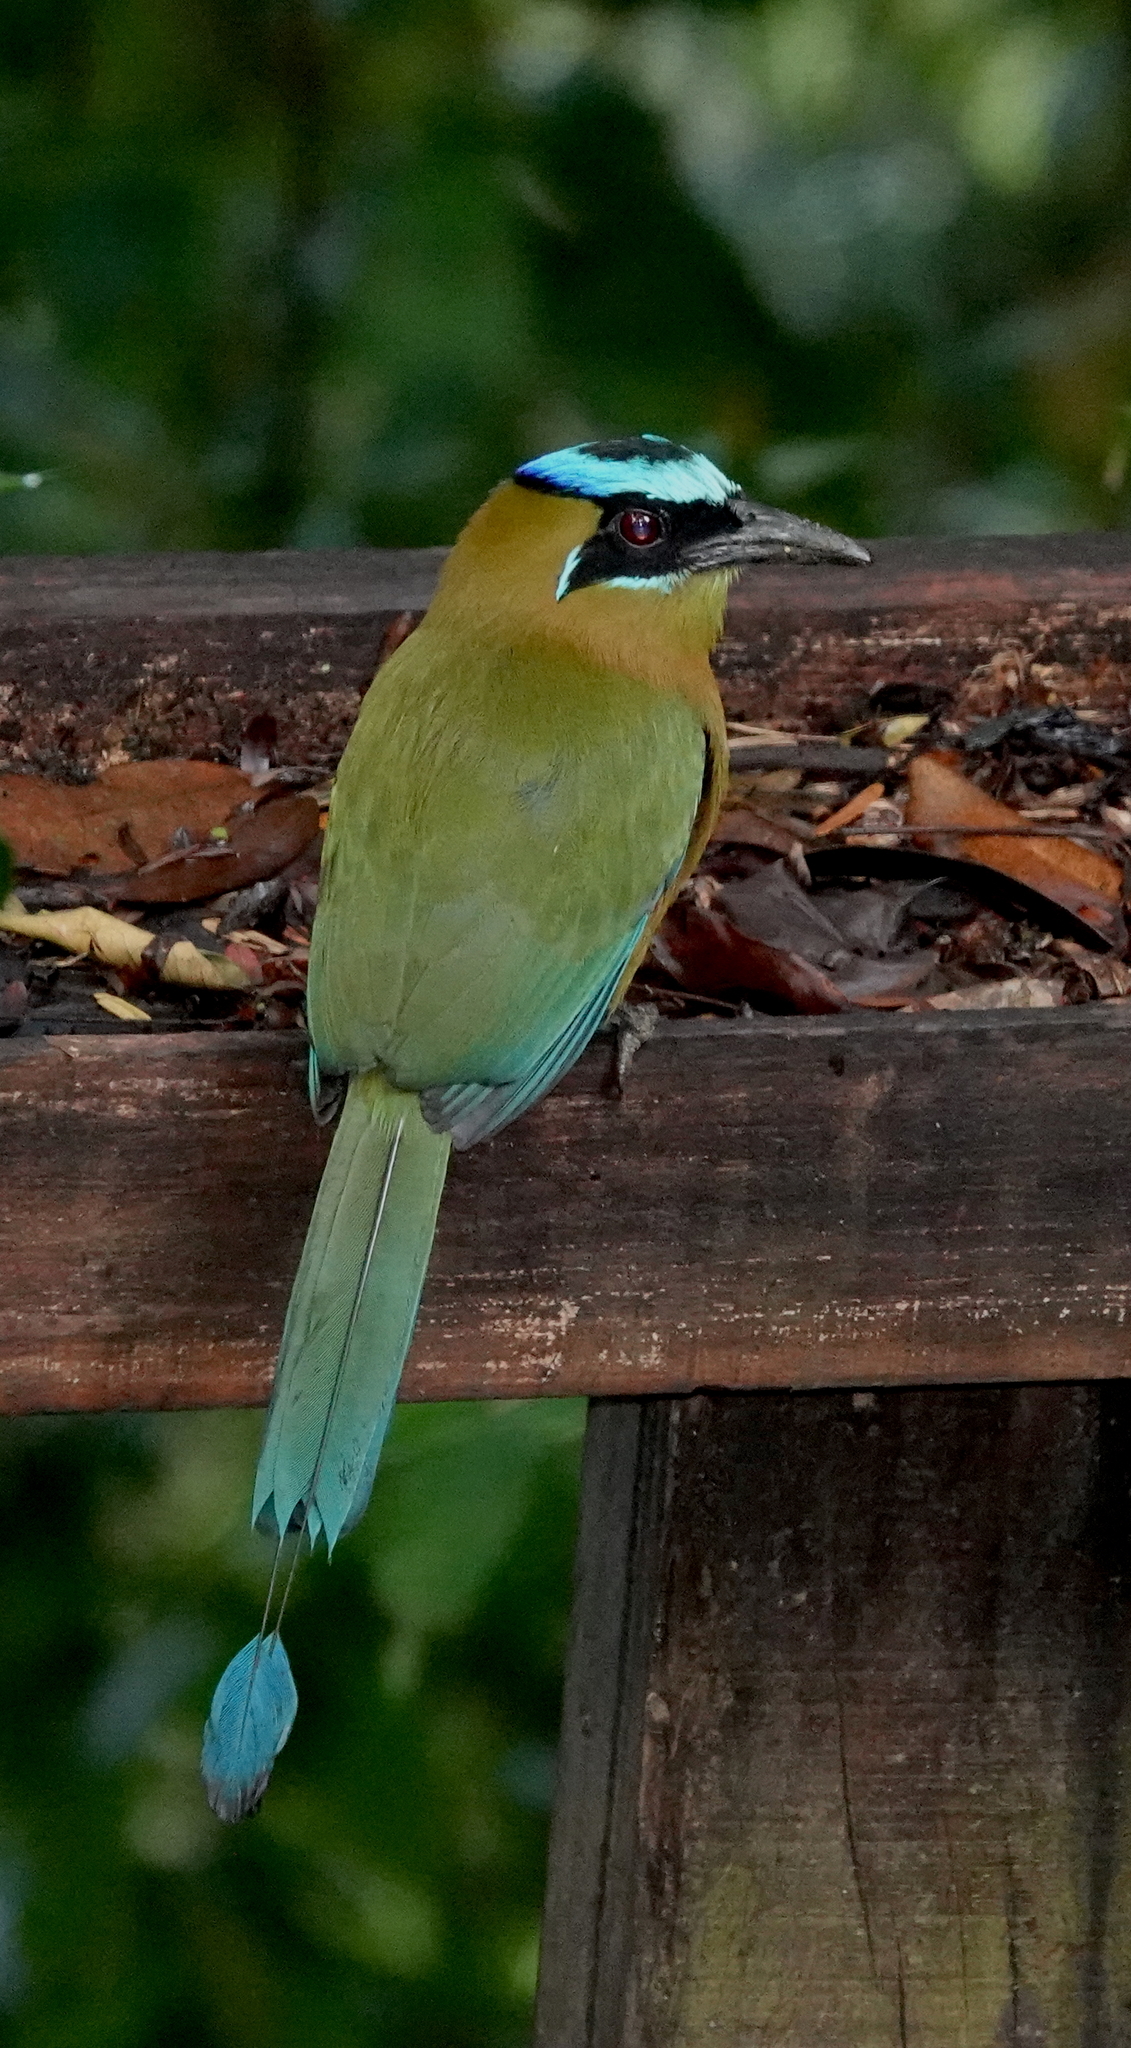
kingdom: Animalia
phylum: Chordata
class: Aves
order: Coraciiformes
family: Momotidae
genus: Momotus
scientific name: Momotus lessonii
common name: Lesson's motmot
